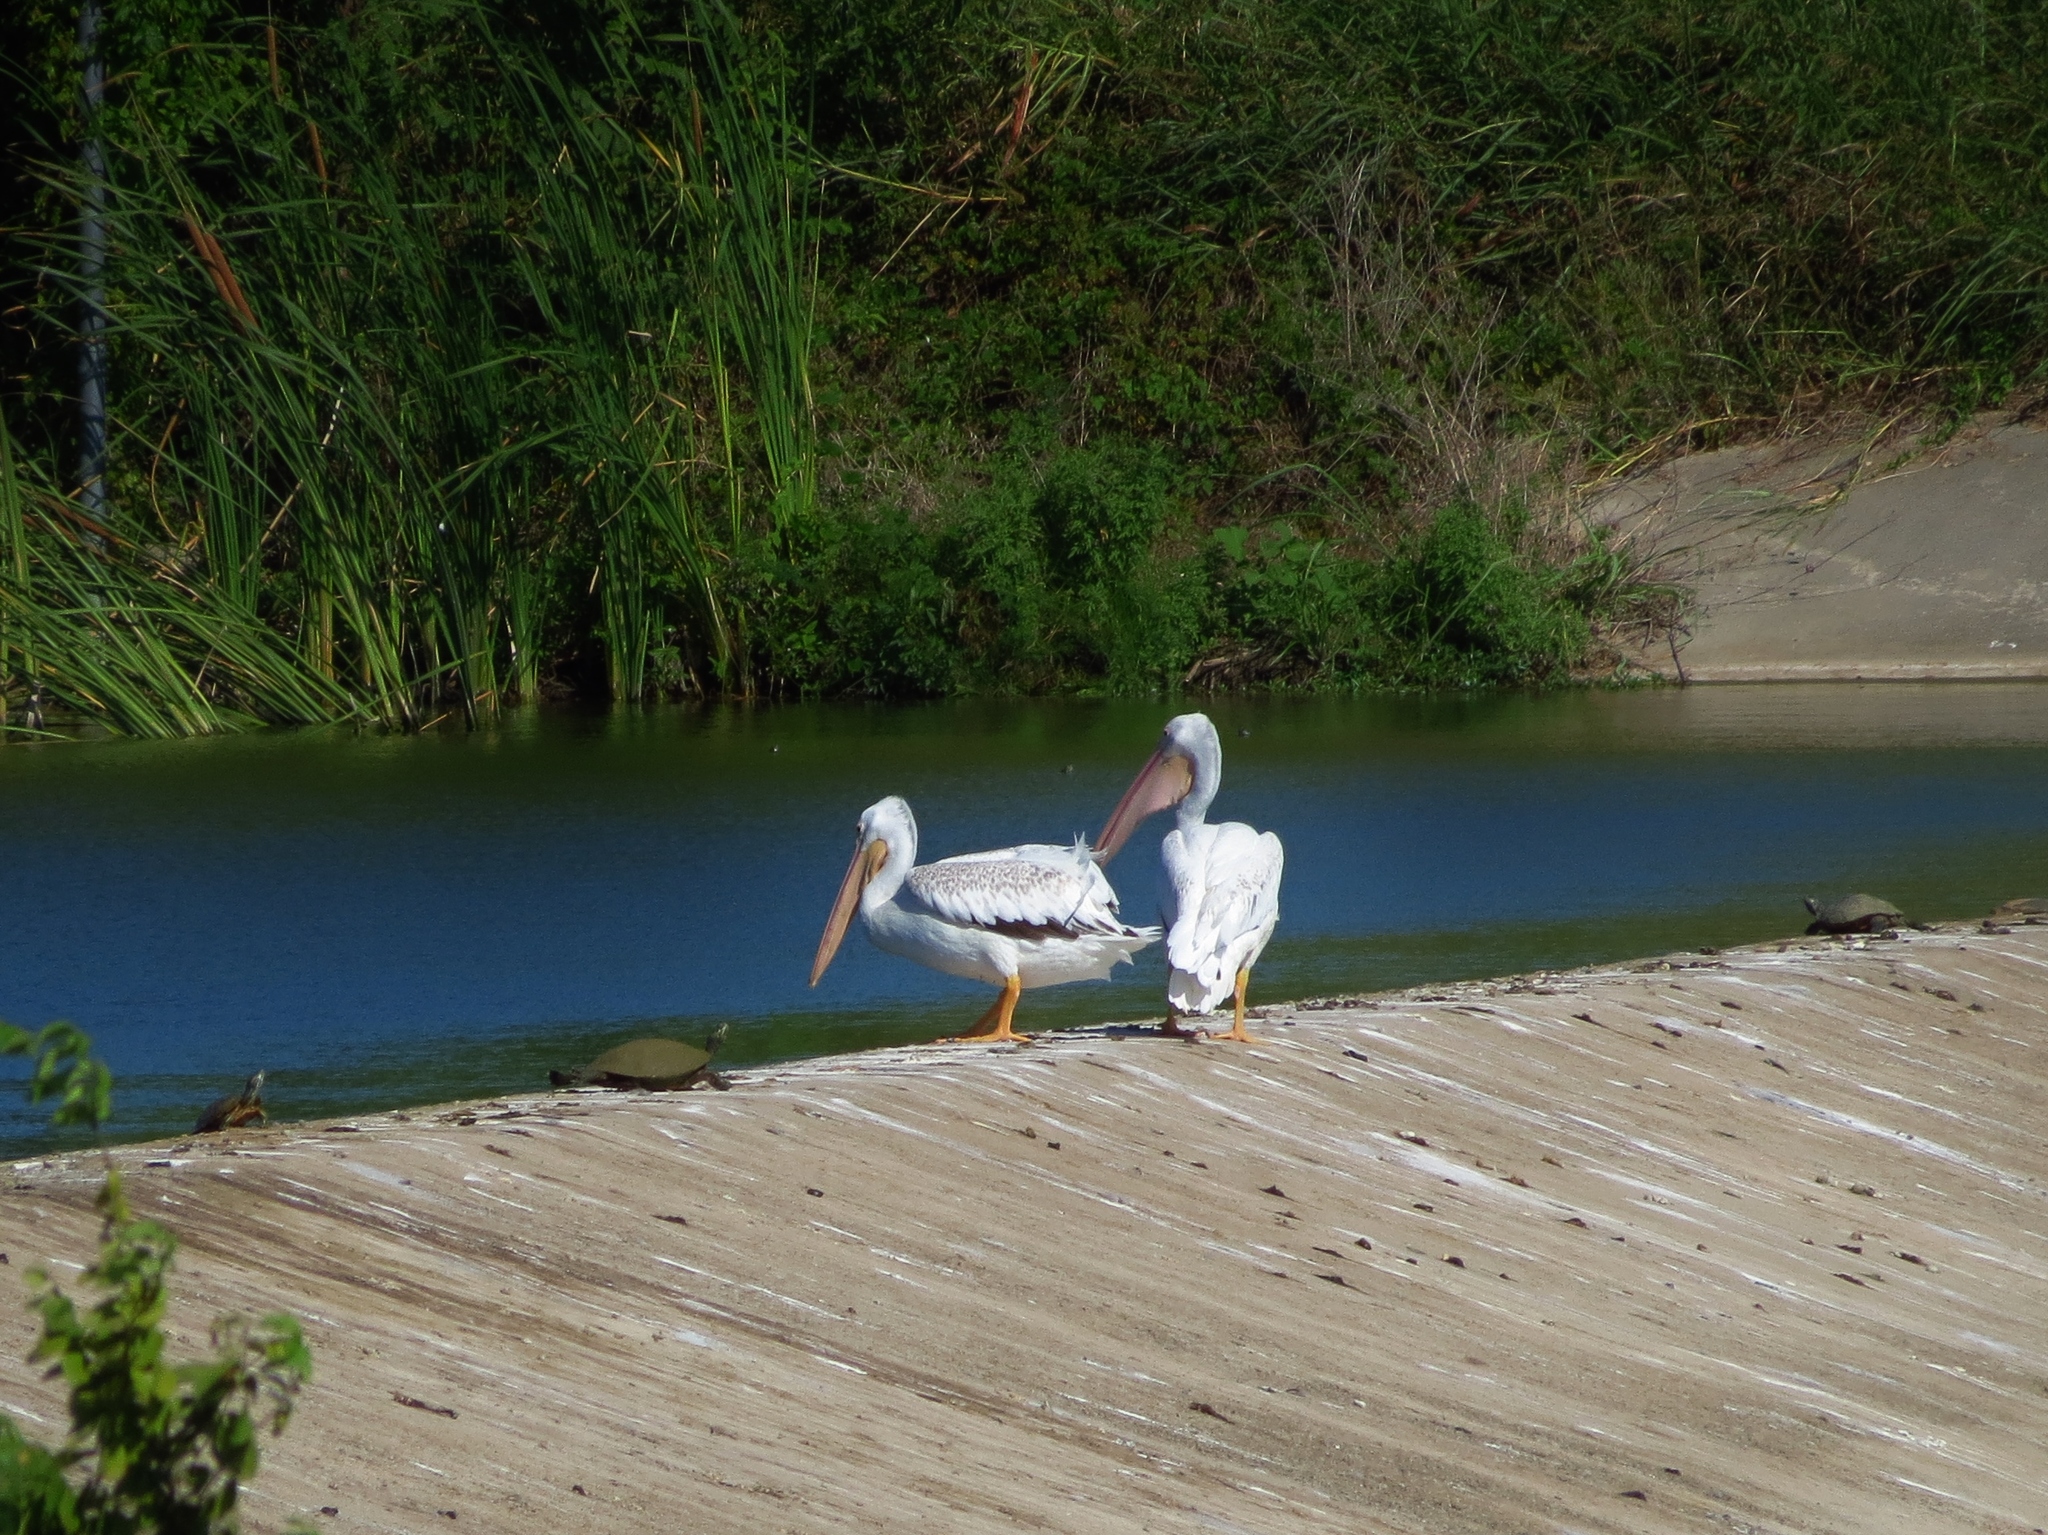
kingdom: Animalia
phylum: Chordata
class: Aves
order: Pelecaniformes
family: Pelecanidae
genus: Pelecanus
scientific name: Pelecanus erythrorhynchos
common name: American white pelican
